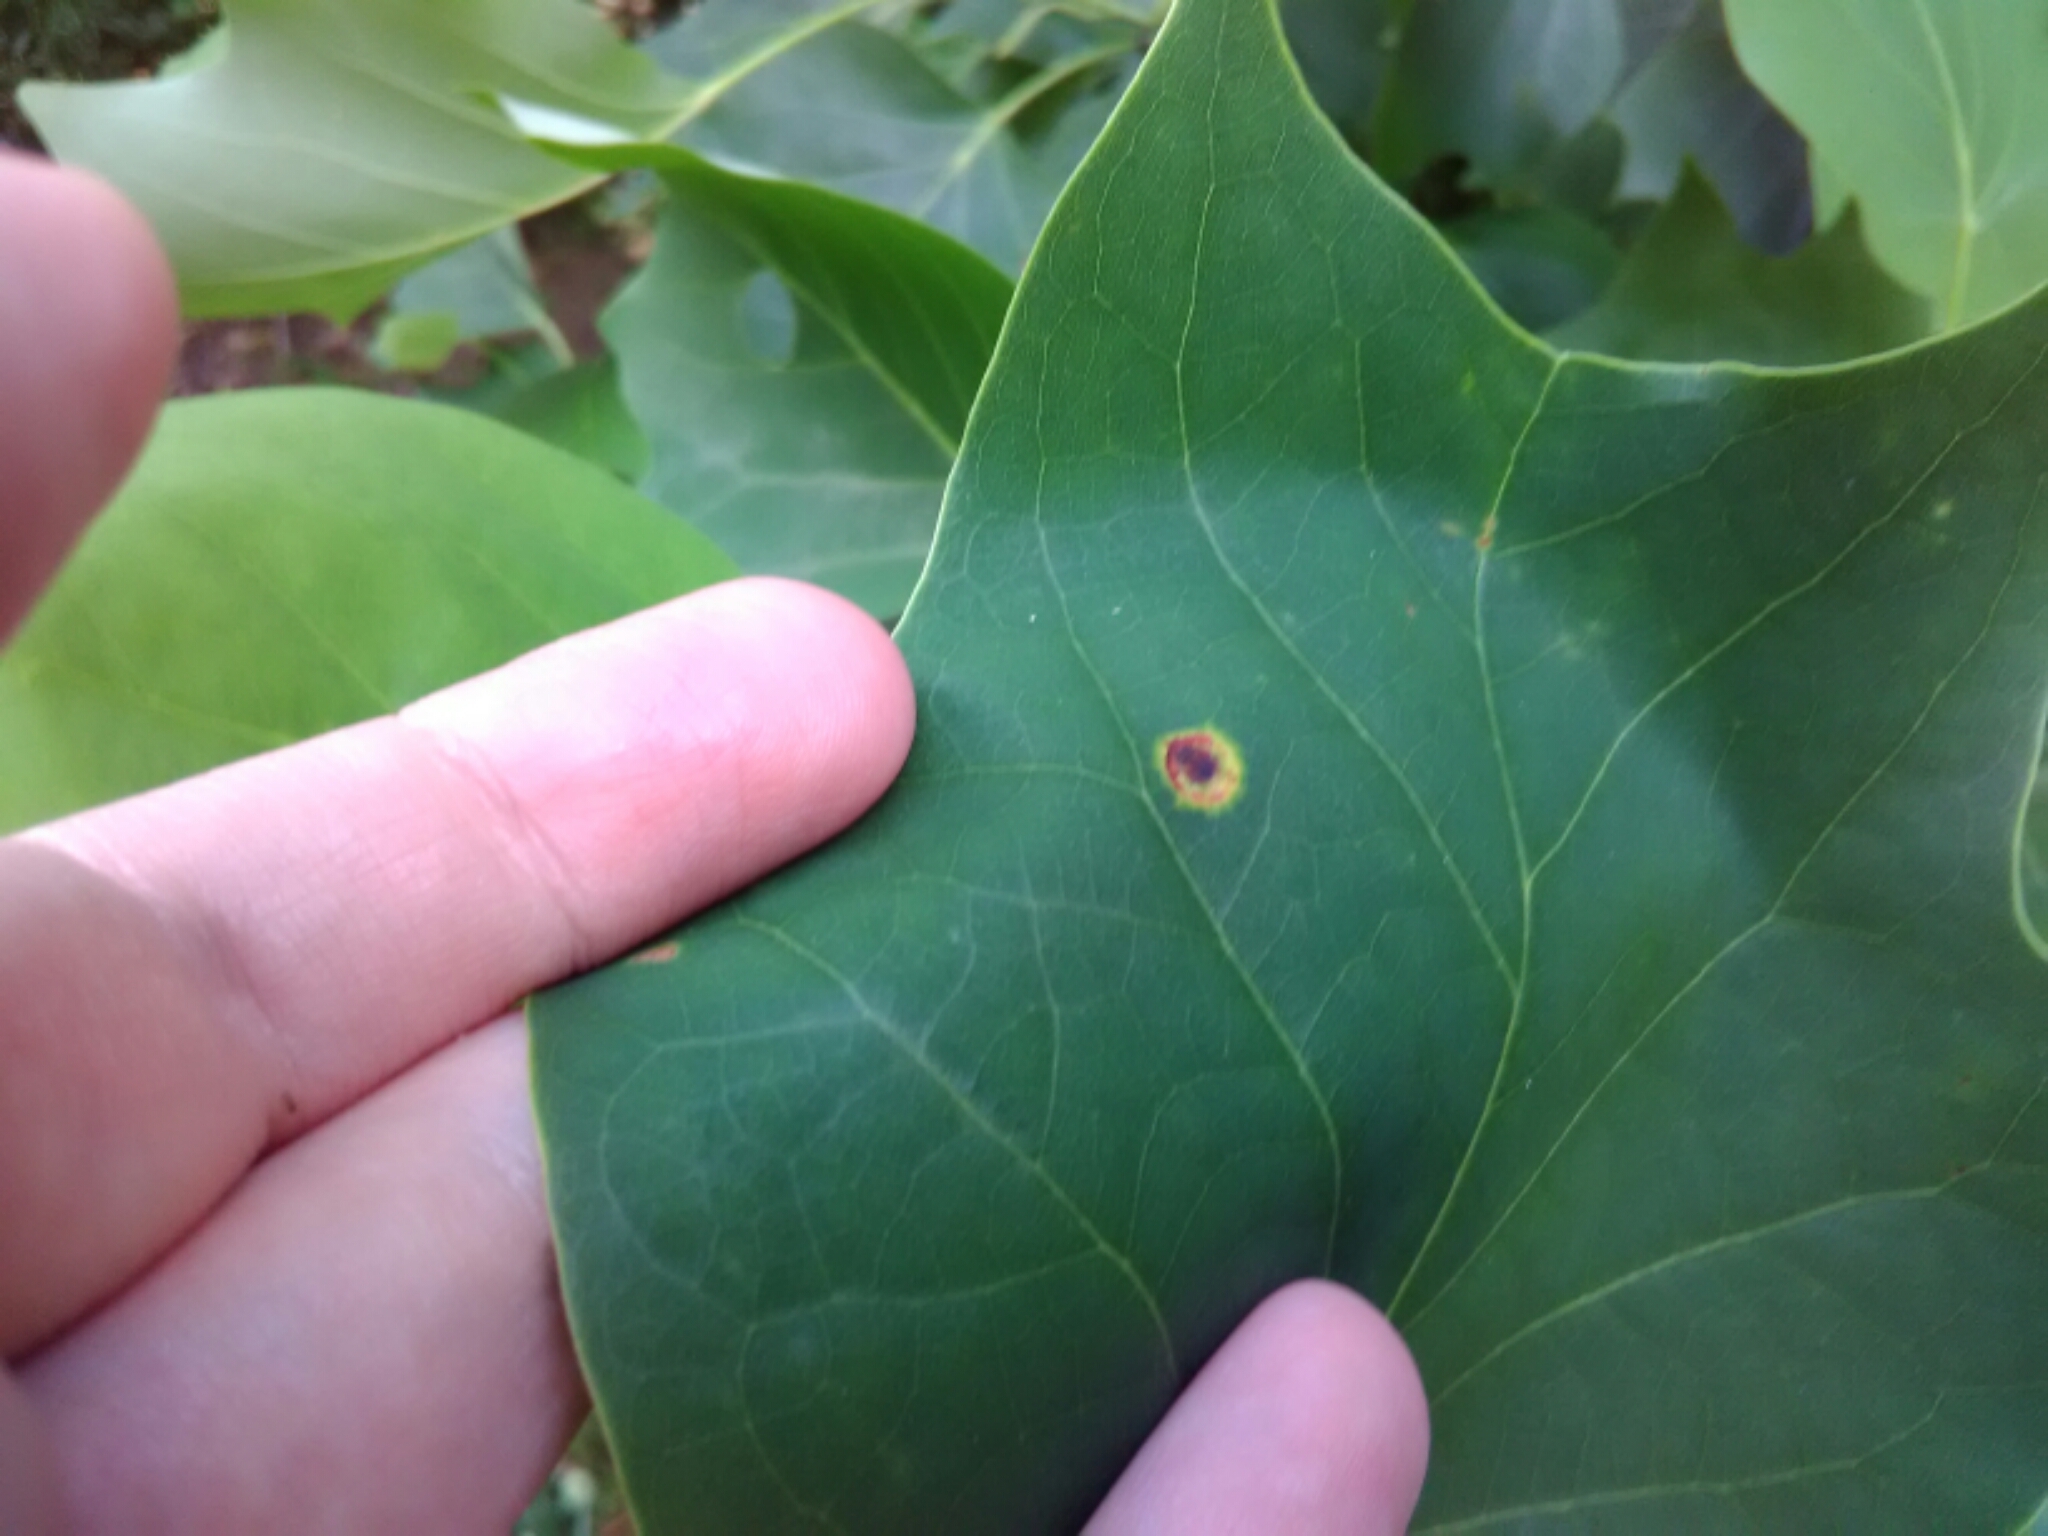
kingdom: Animalia
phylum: Arthropoda
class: Insecta
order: Diptera
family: Cecidomyiidae
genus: Resseliella
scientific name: Resseliella liriodendri
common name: Tulip tree leaf spot gall midge
